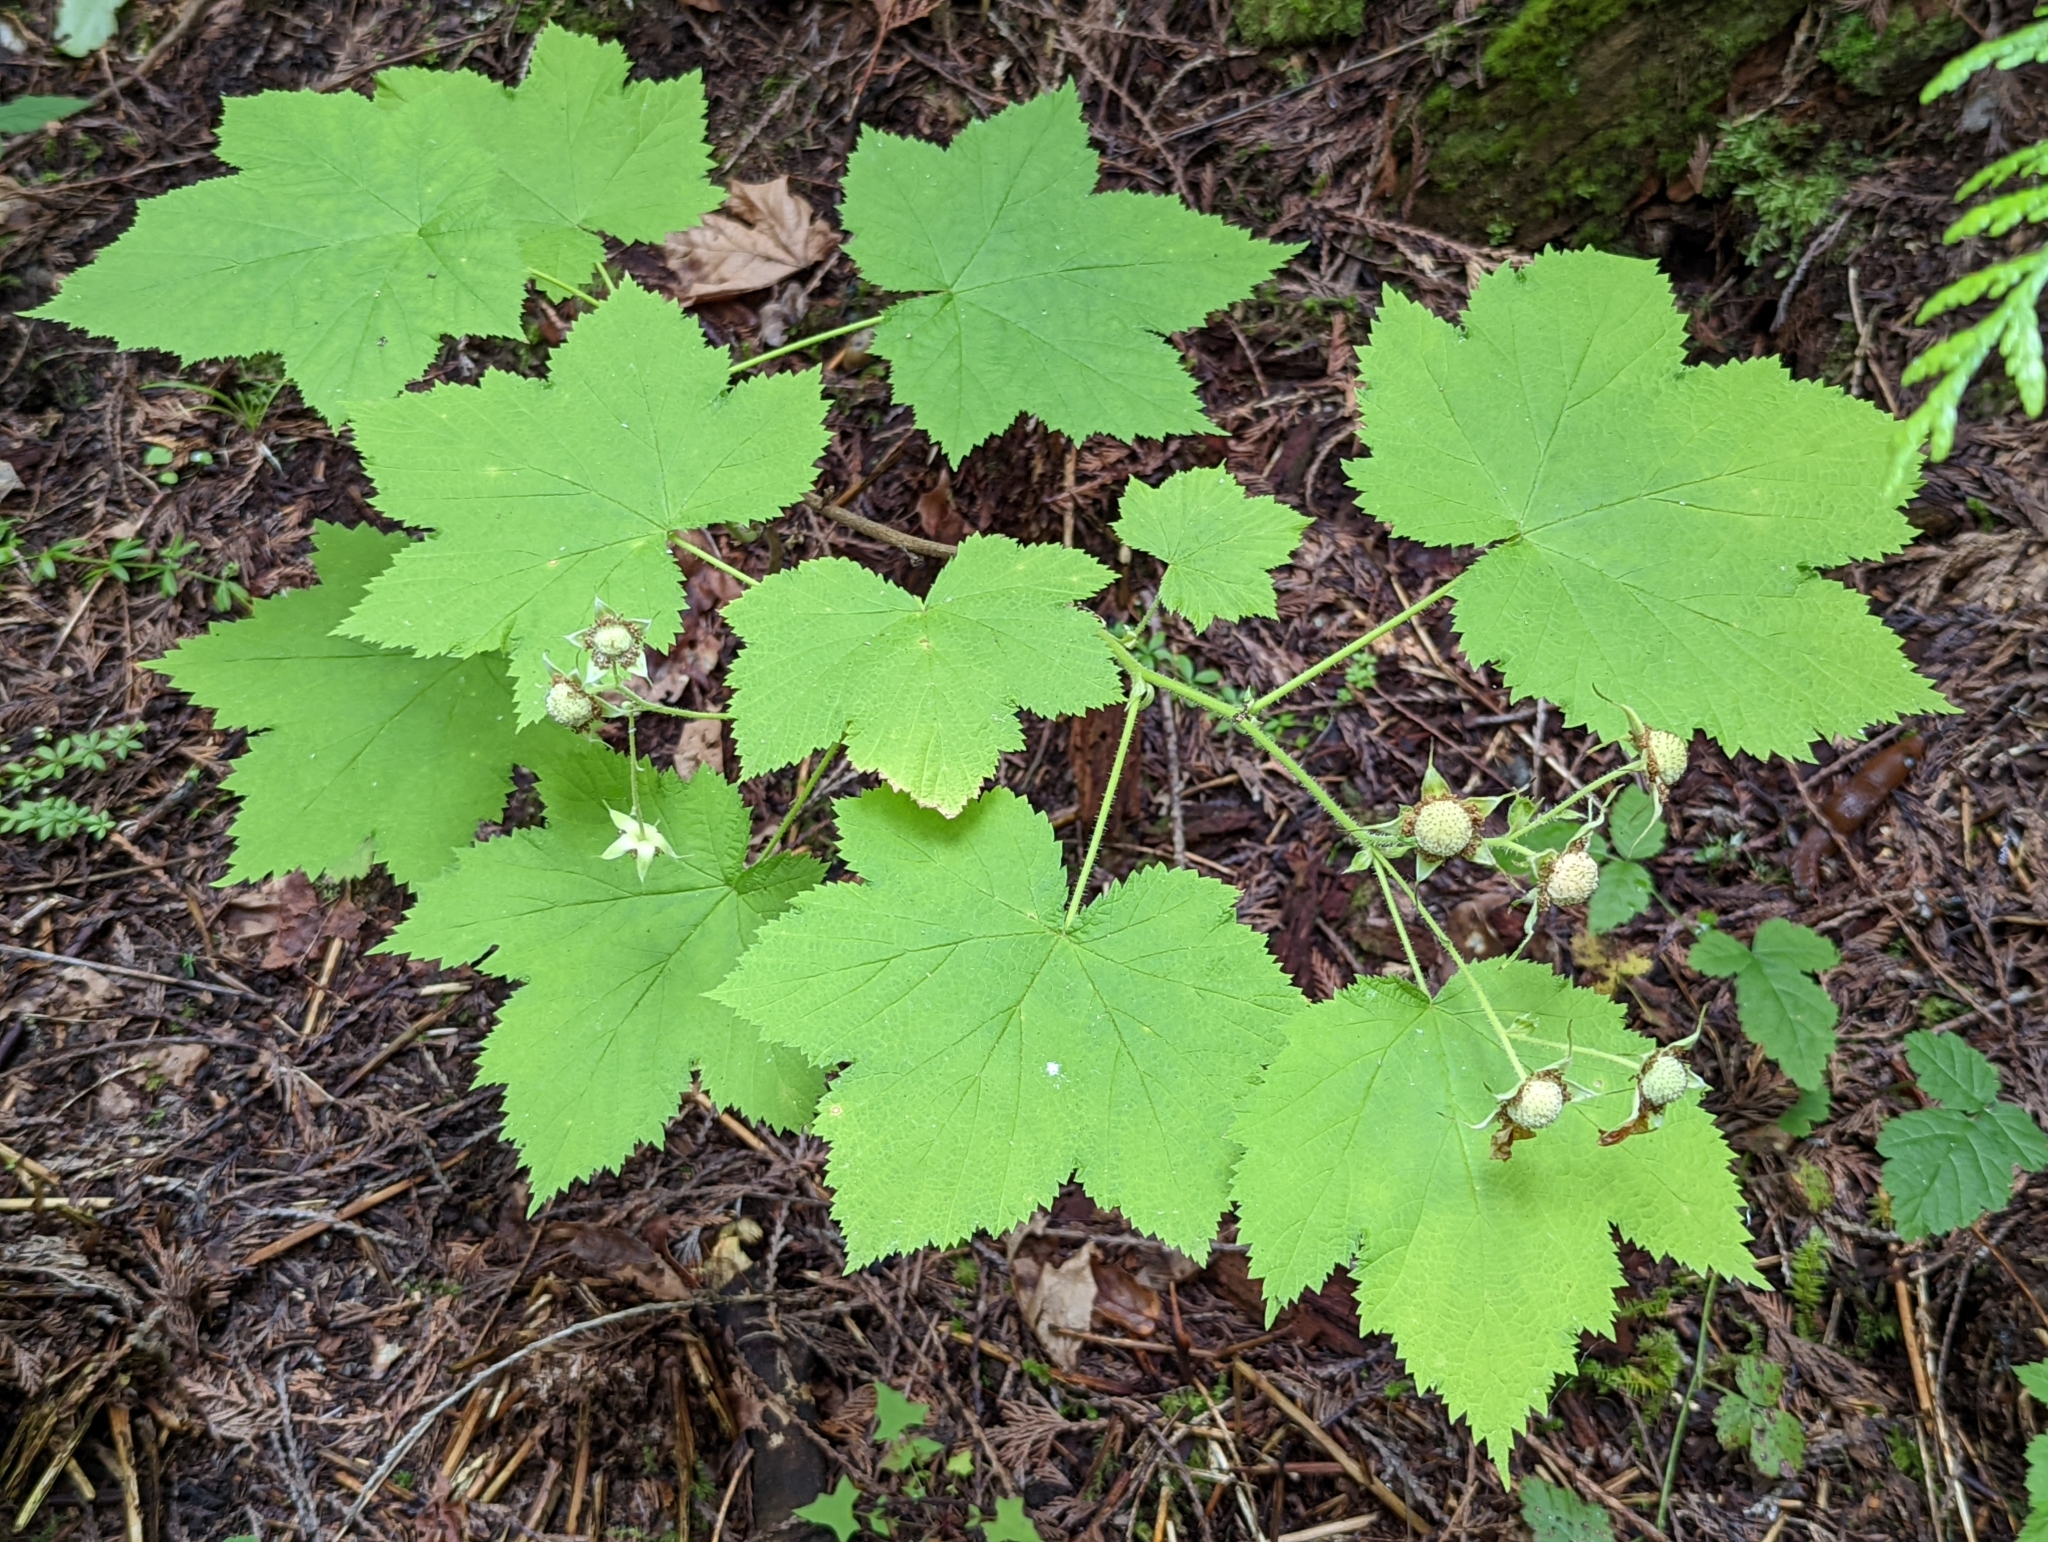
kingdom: Plantae
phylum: Tracheophyta
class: Magnoliopsida
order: Rosales
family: Rosaceae
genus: Rubus
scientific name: Rubus parviflorus
